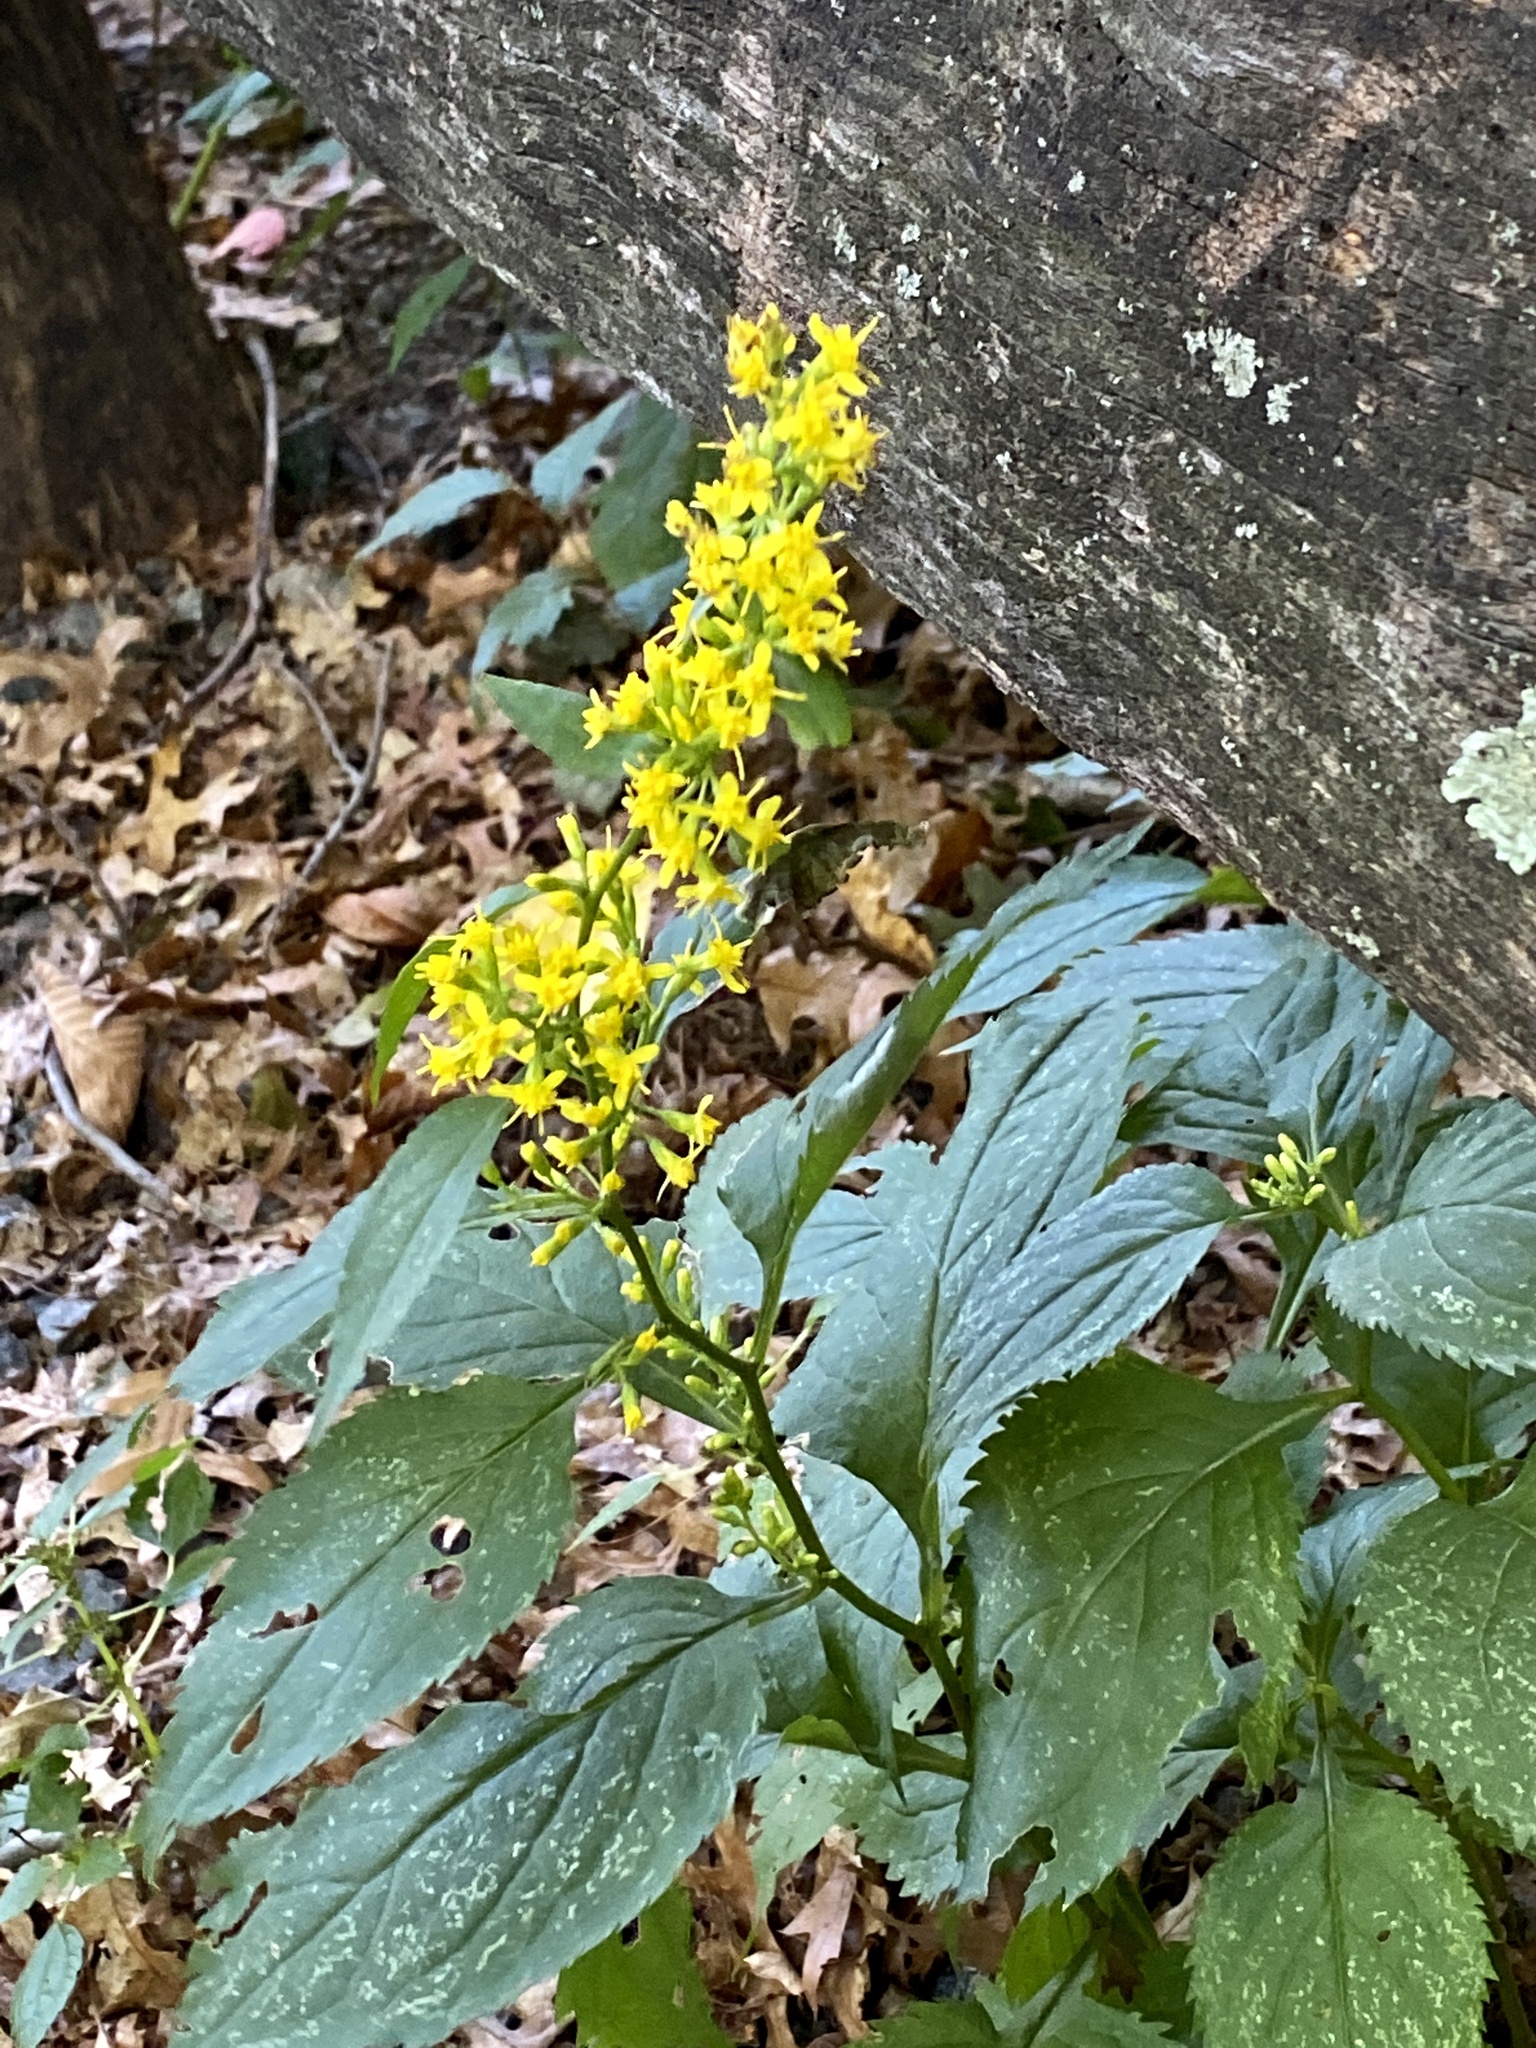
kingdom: Plantae
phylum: Tracheophyta
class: Magnoliopsida
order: Asterales
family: Asteraceae
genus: Solidago
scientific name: Solidago flexicaulis
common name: Zig-zag goldenrod
